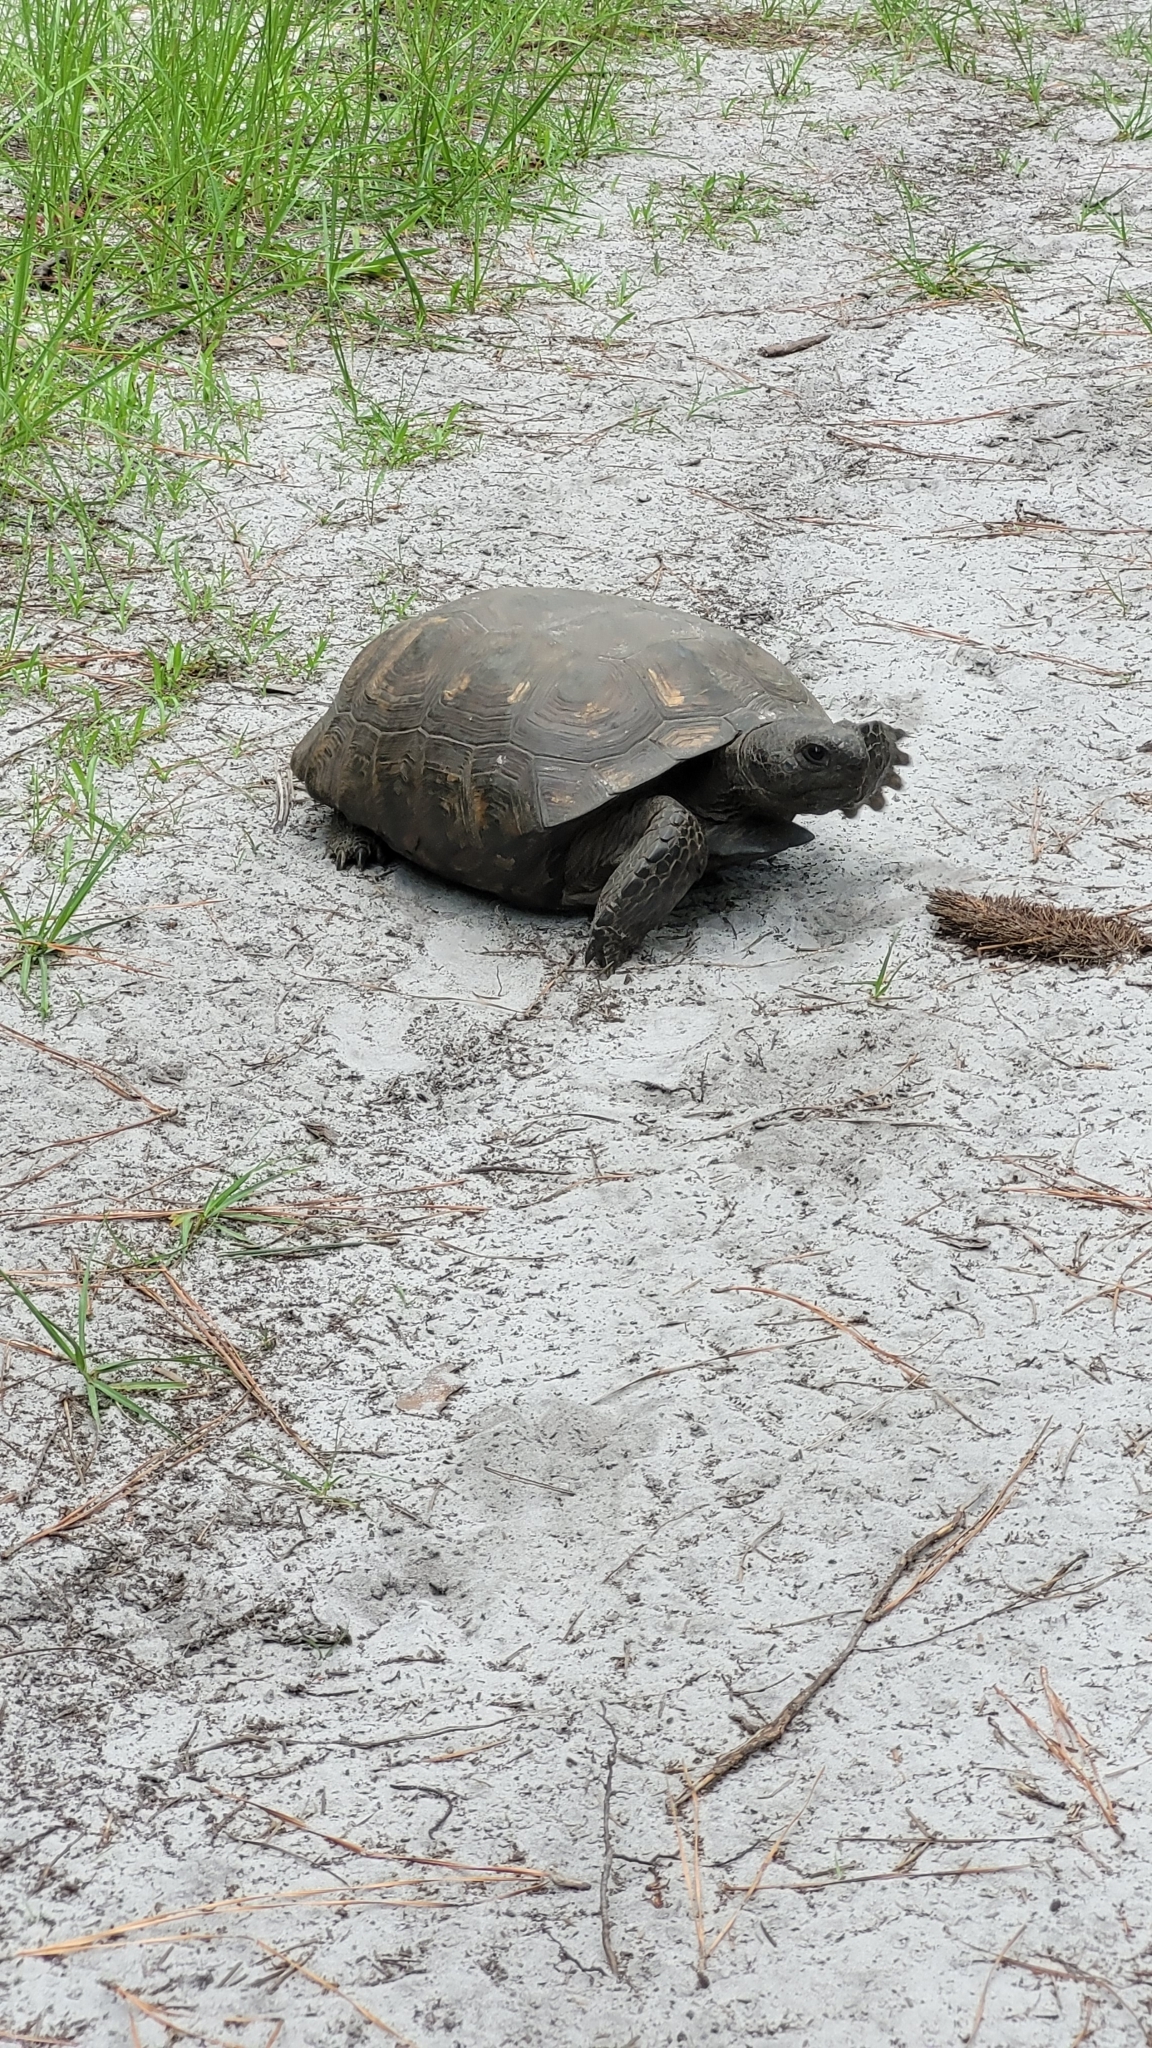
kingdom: Animalia
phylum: Chordata
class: Testudines
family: Testudinidae
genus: Gopherus
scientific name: Gopherus polyphemus
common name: Florida gopher tortoise
